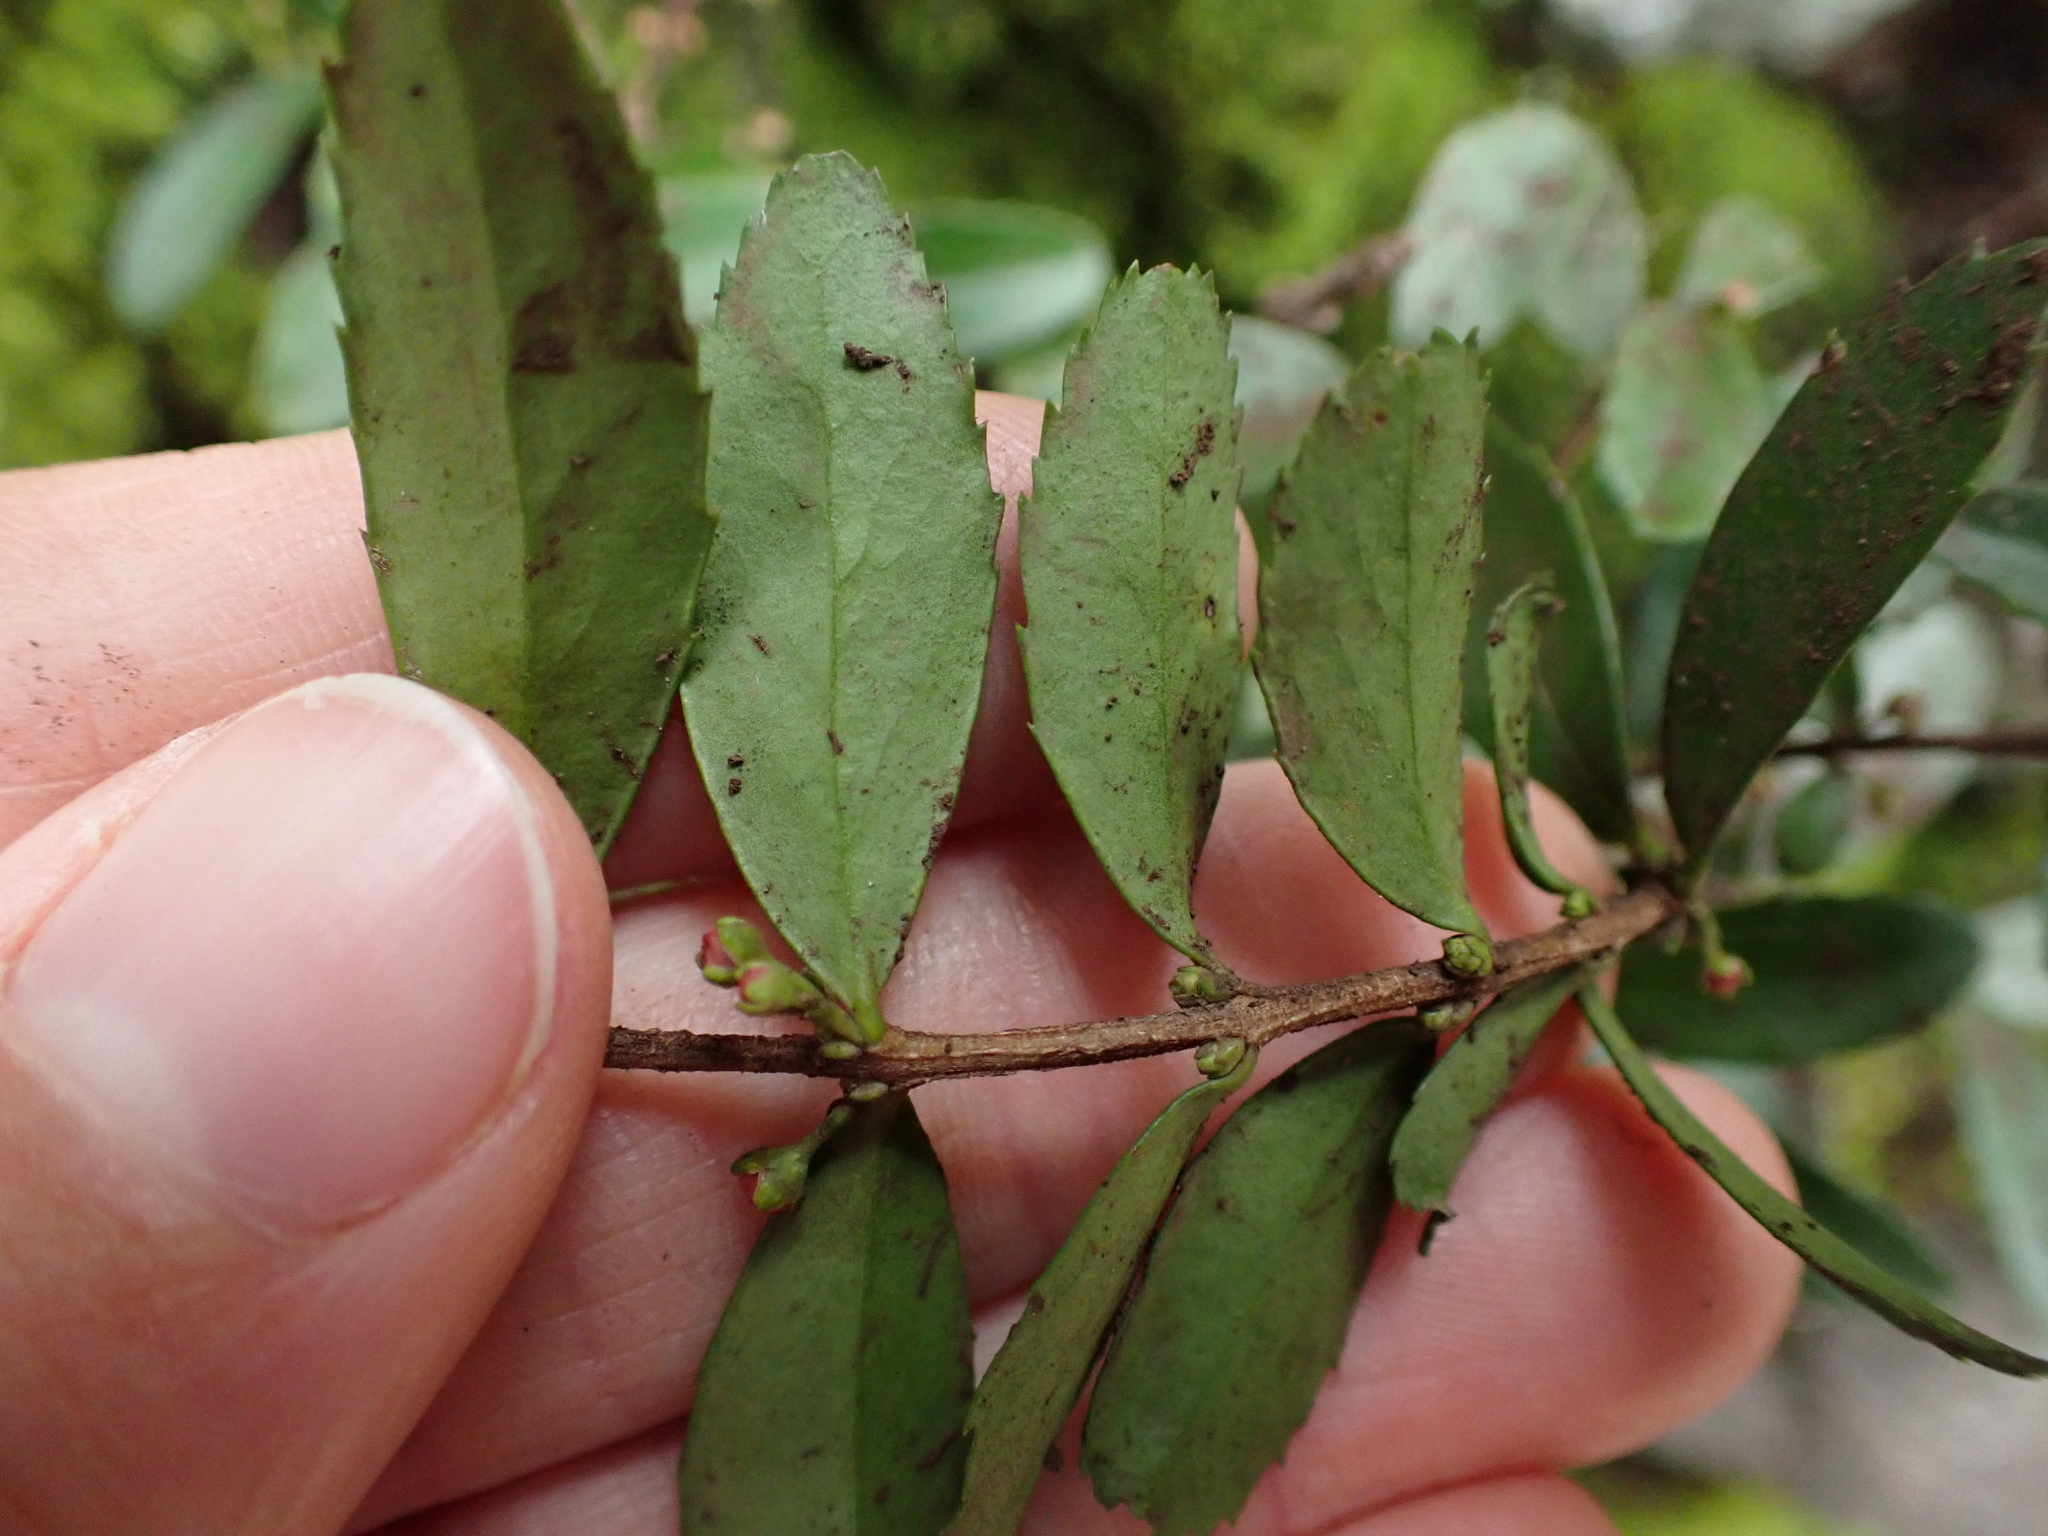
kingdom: Plantae
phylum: Tracheophyta
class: Magnoliopsida
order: Celastrales
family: Celastraceae
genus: Paxistima
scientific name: Paxistima myrsinites
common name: Mountain-lover
